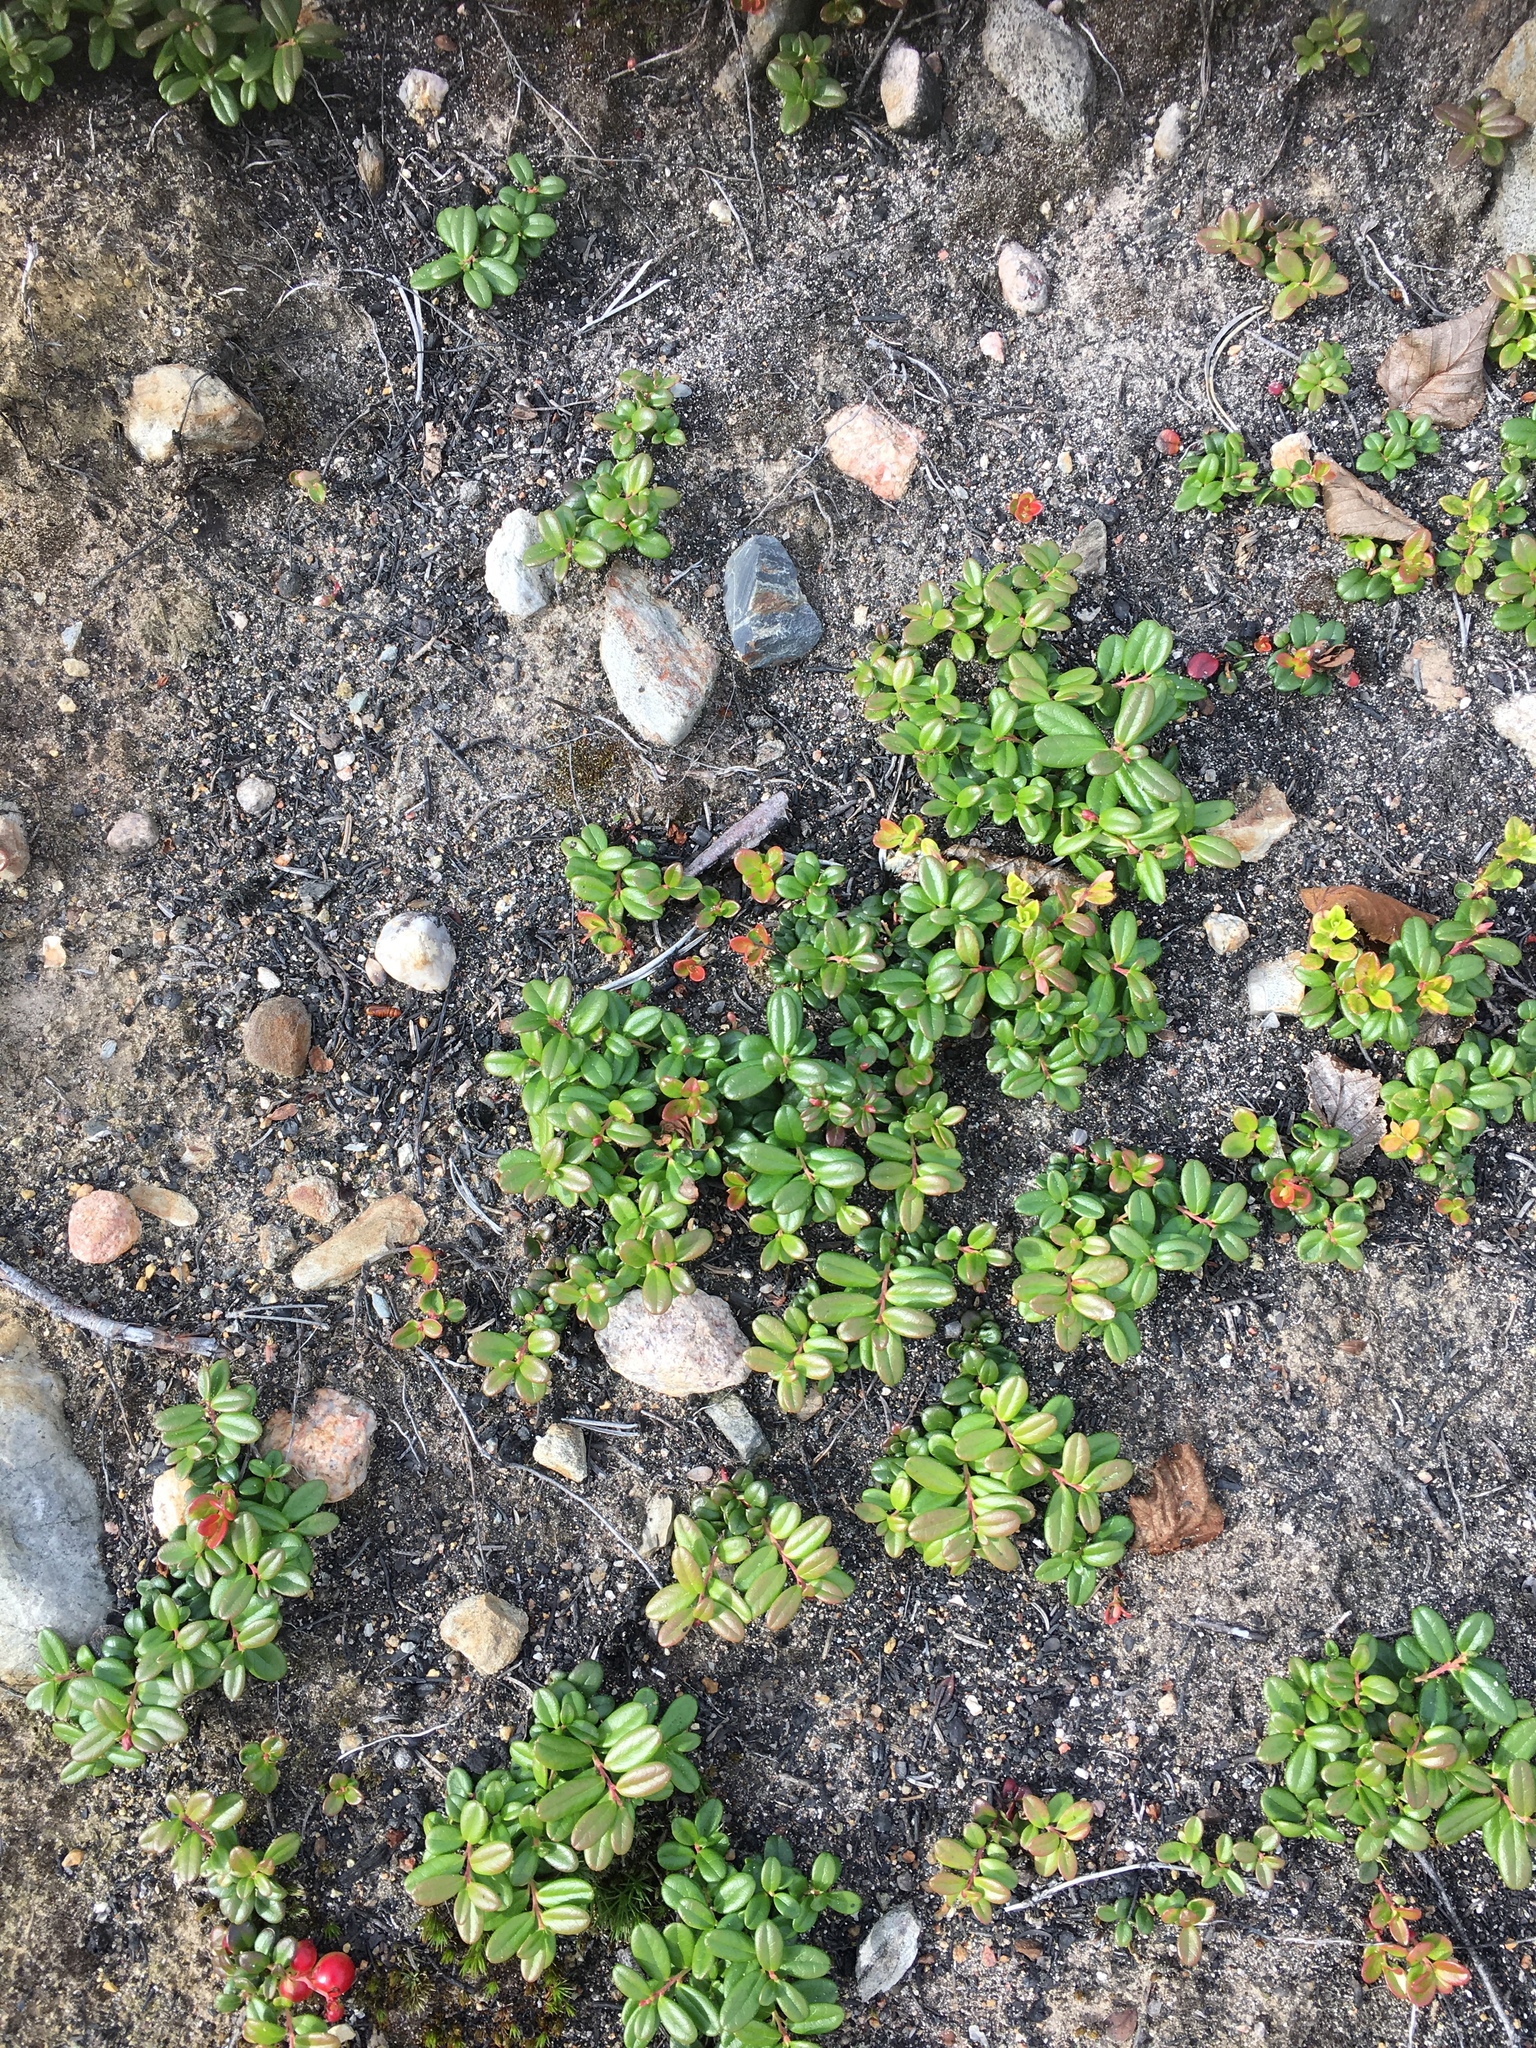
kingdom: Plantae
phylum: Tracheophyta
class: Magnoliopsida
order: Ericales
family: Ericaceae
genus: Vaccinium
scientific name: Vaccinium vitis-idaea
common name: Cowberry
